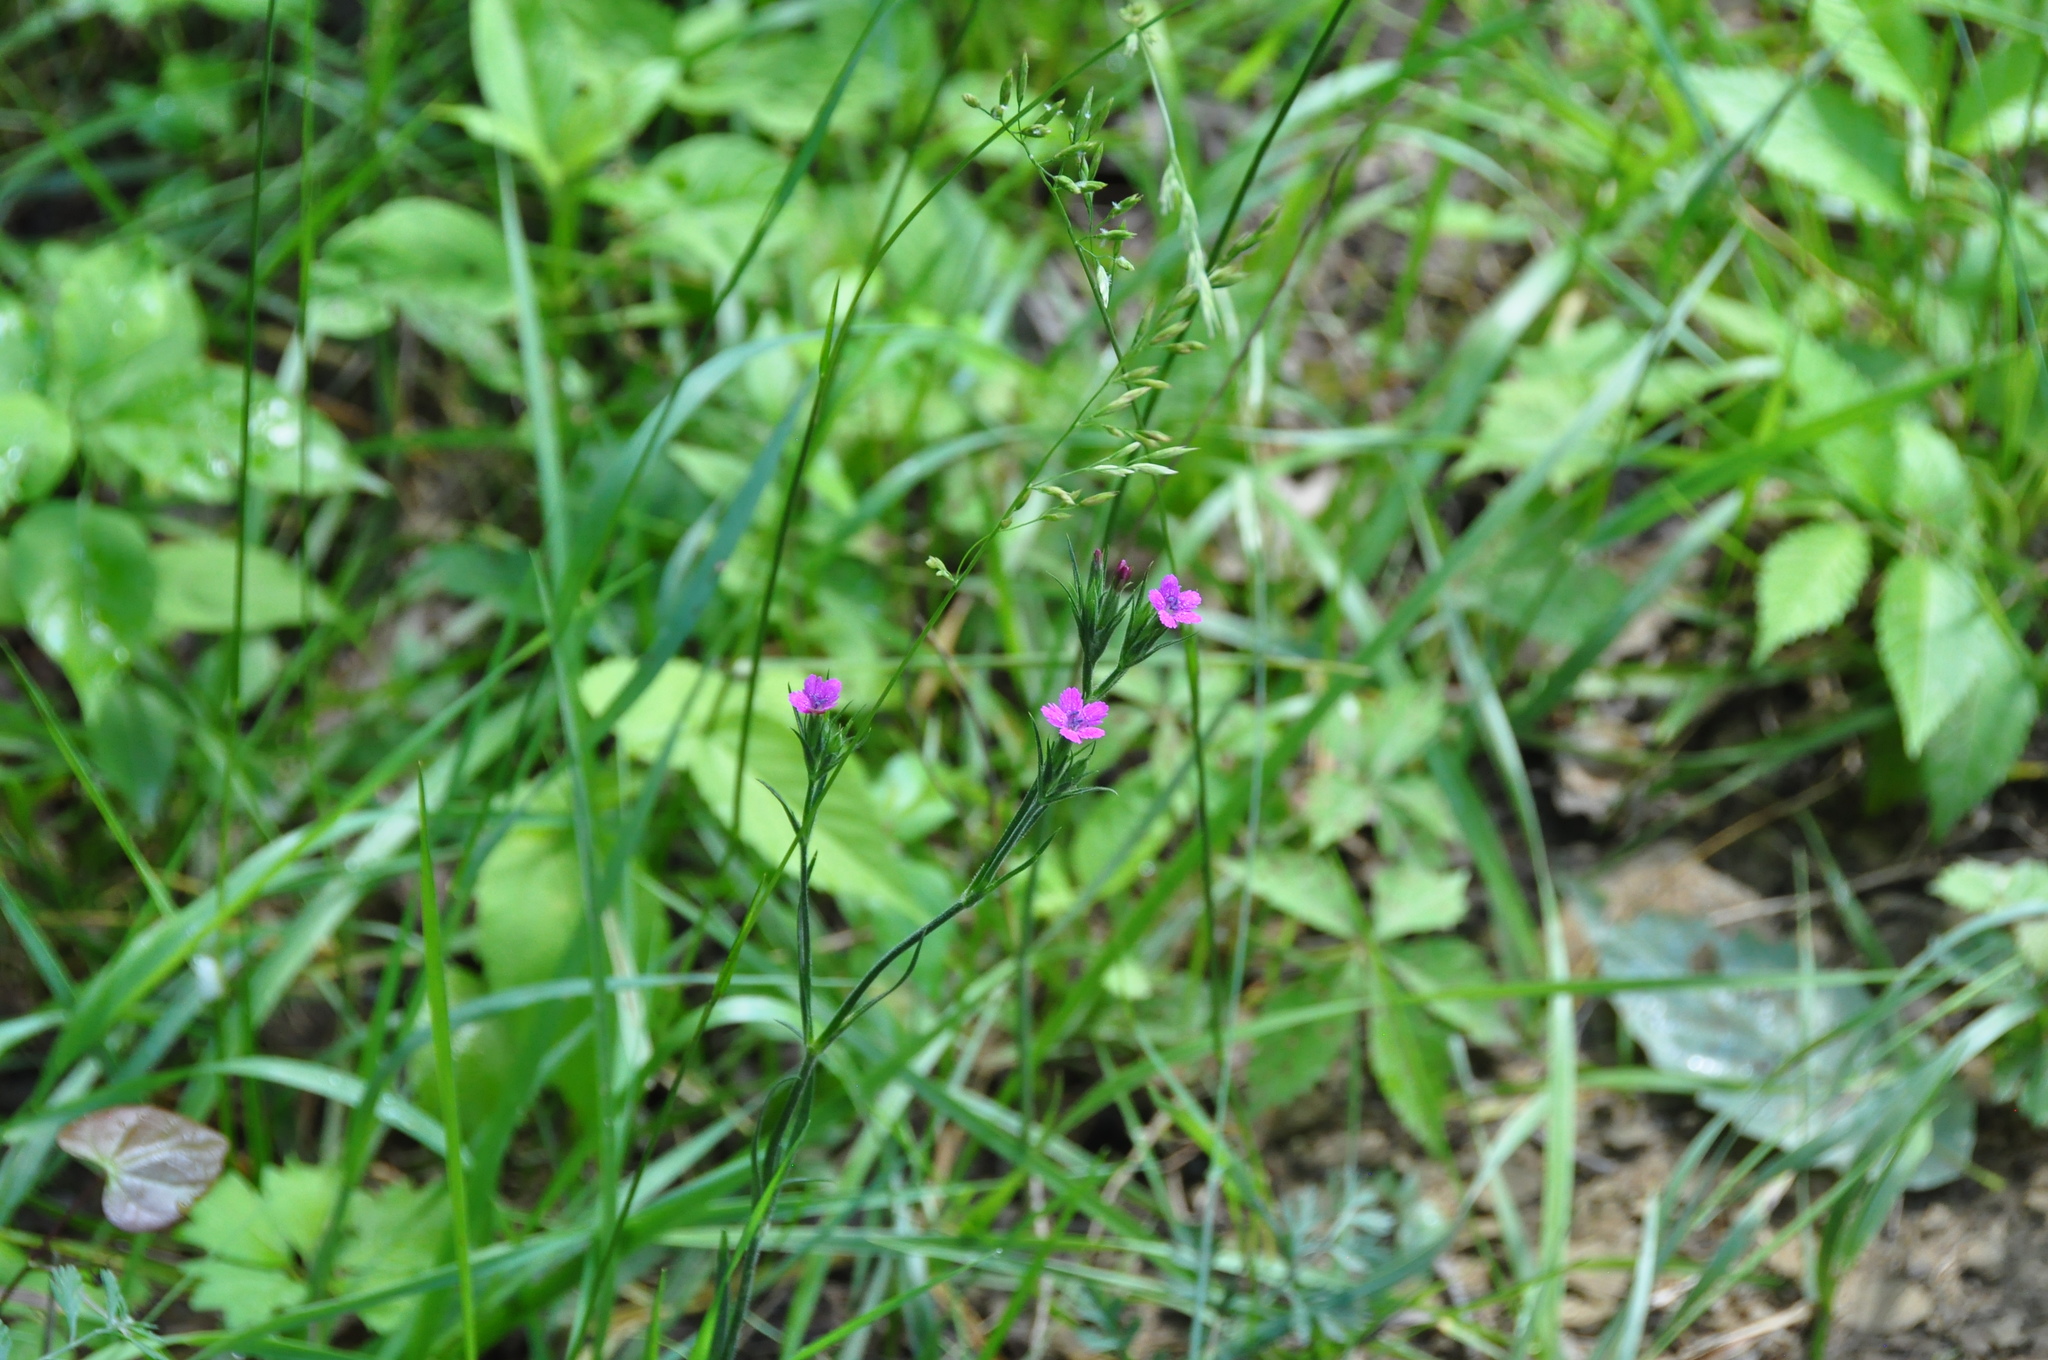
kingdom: Plantae
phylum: Tracheophyta
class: Magnoliopsida
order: Caryophyllales
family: Caryophyllaceae
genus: Dianthus
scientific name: Dianthus armeria
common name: Deptford pink
